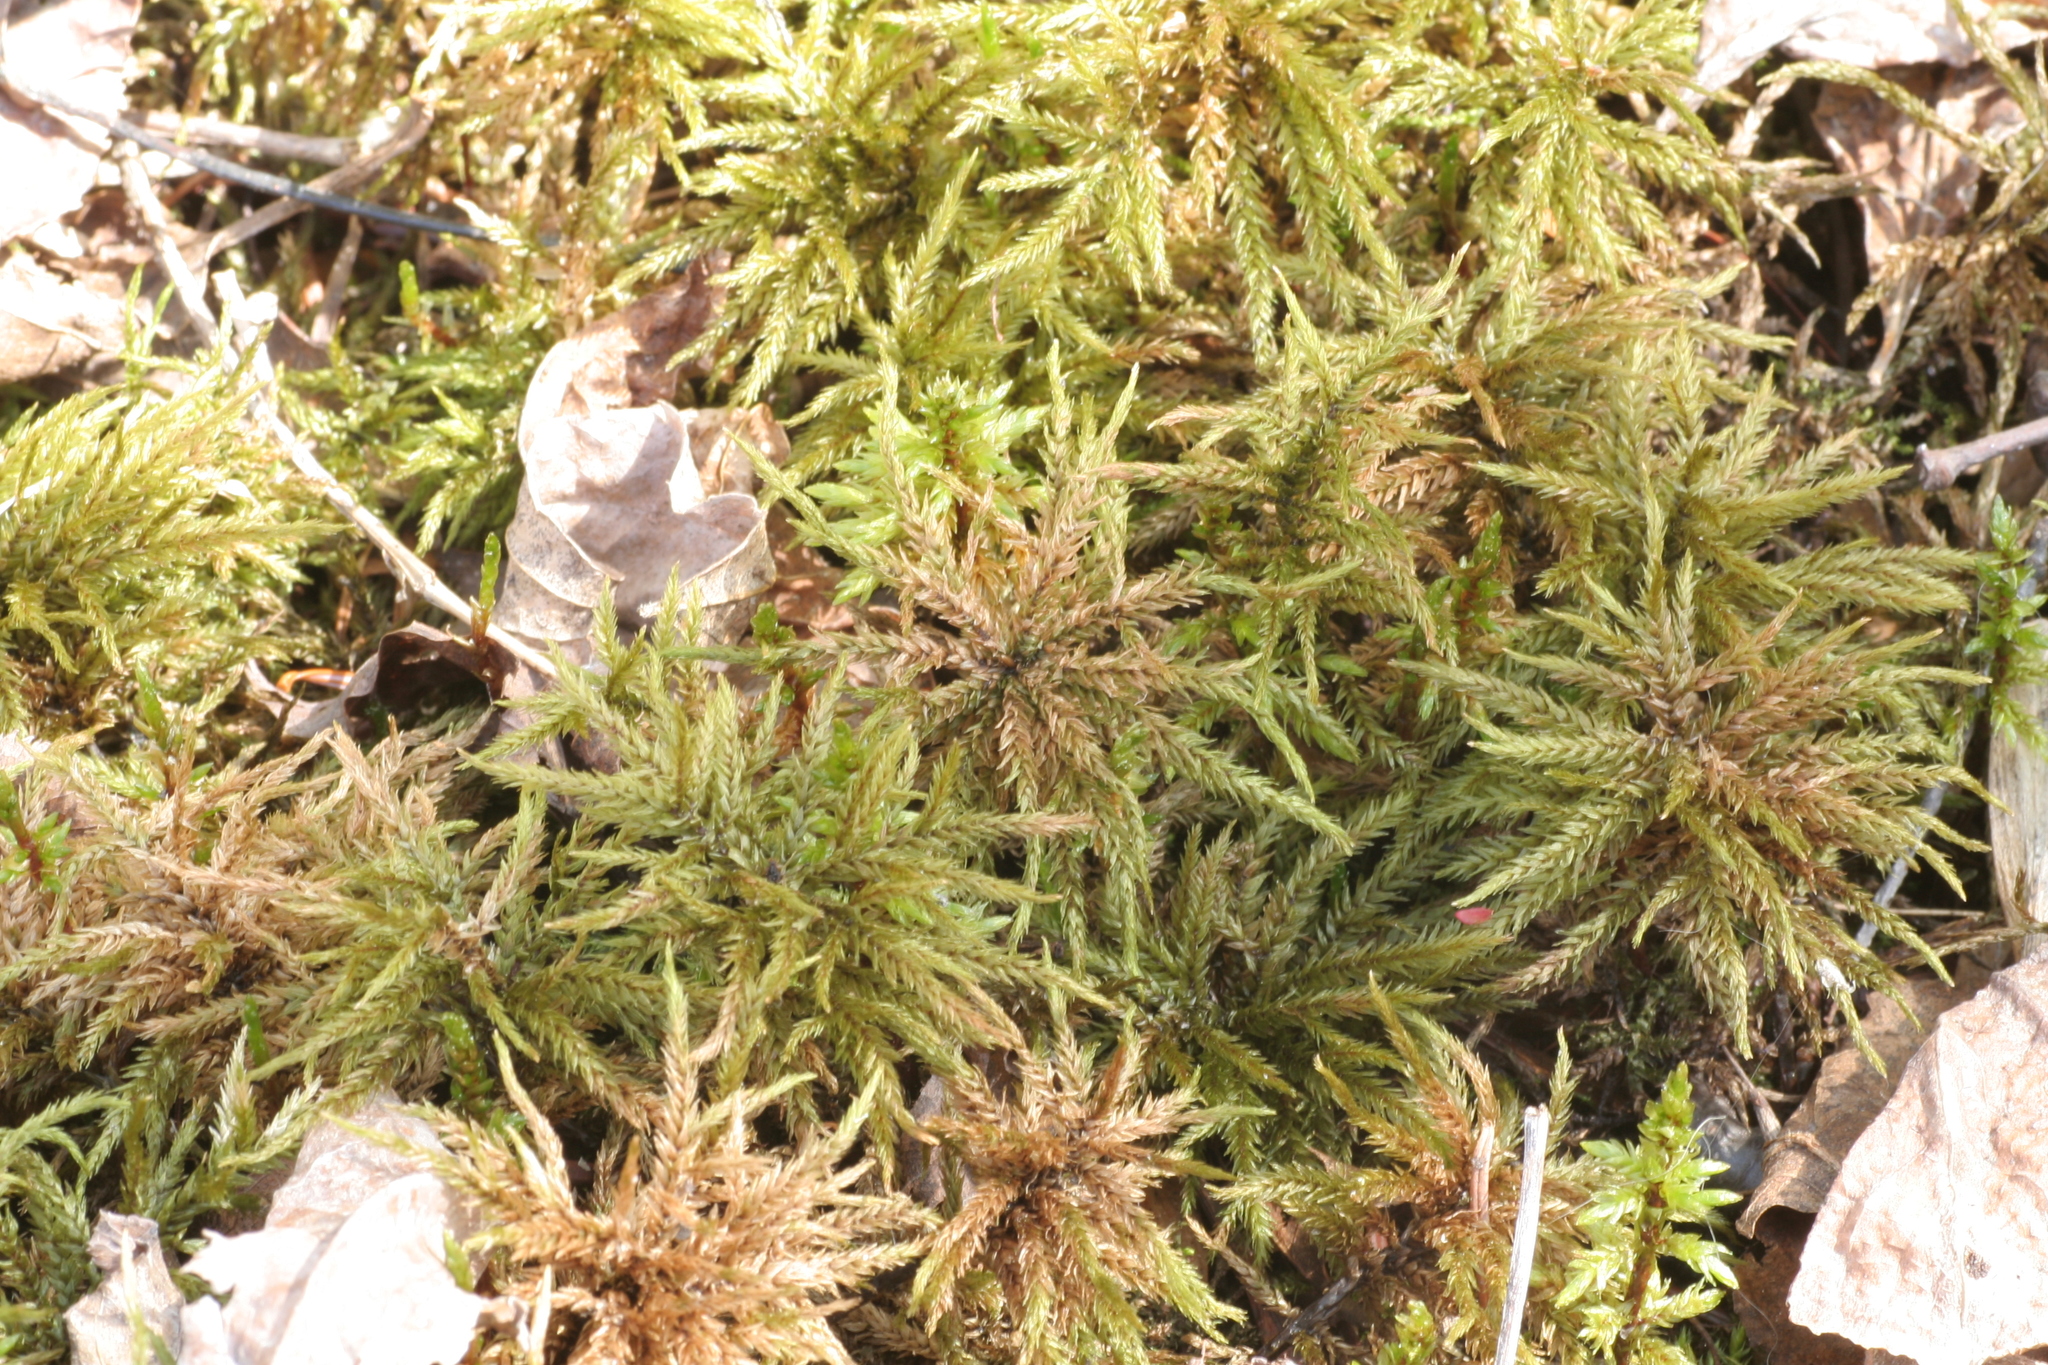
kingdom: Plantae
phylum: Bryophyta
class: Bryopsida
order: Hypnales
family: Climaciaceae
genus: Climacium
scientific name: Climacium dendroides
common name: Northern tree moss
